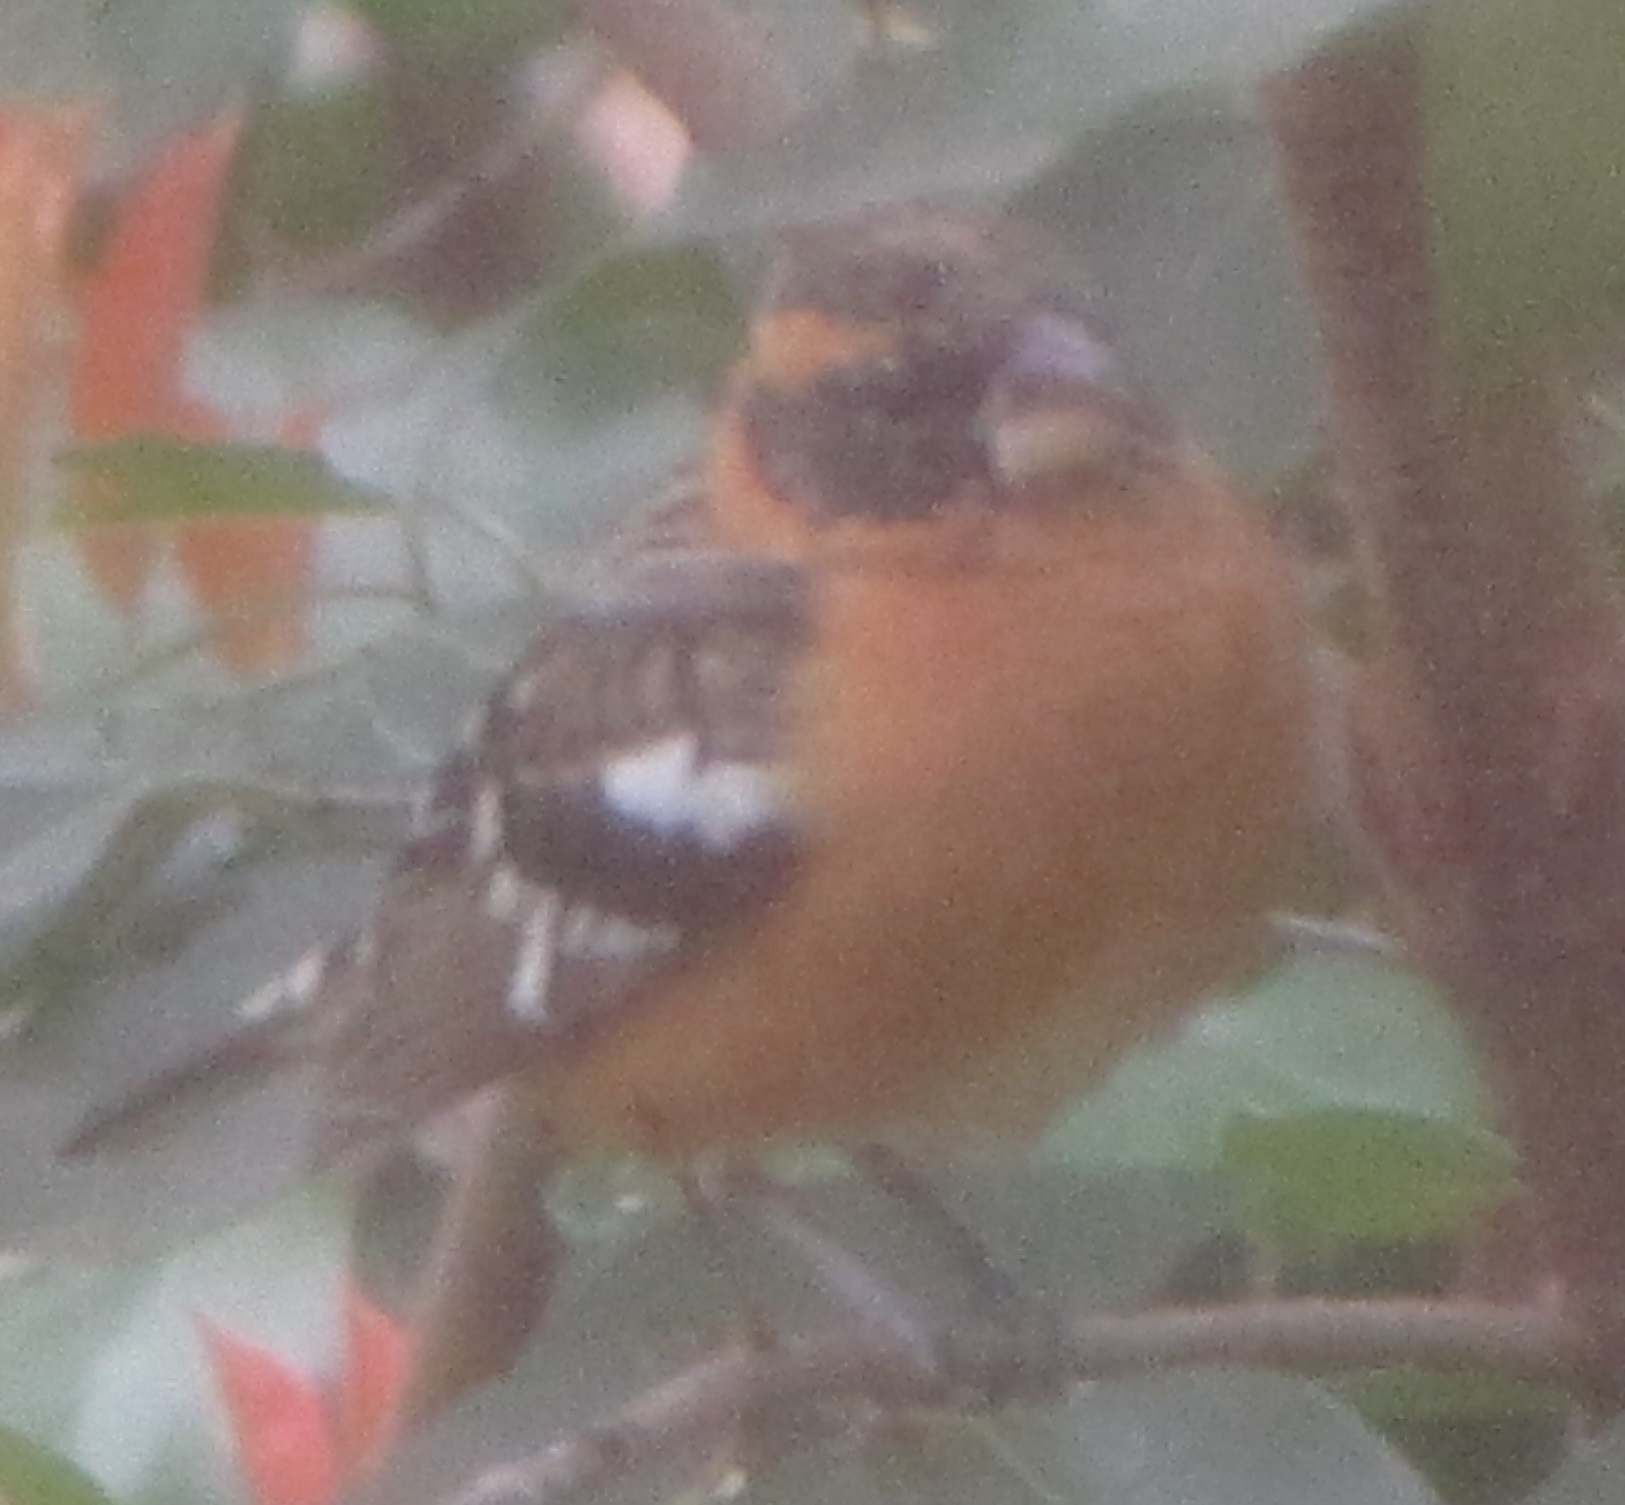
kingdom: Animalia
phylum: Chordata
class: Aves
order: Passeriformes
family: Cardinalidae
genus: Pheucticus
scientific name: Pheucticus melanocephalus
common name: Black-headed grosbeak
